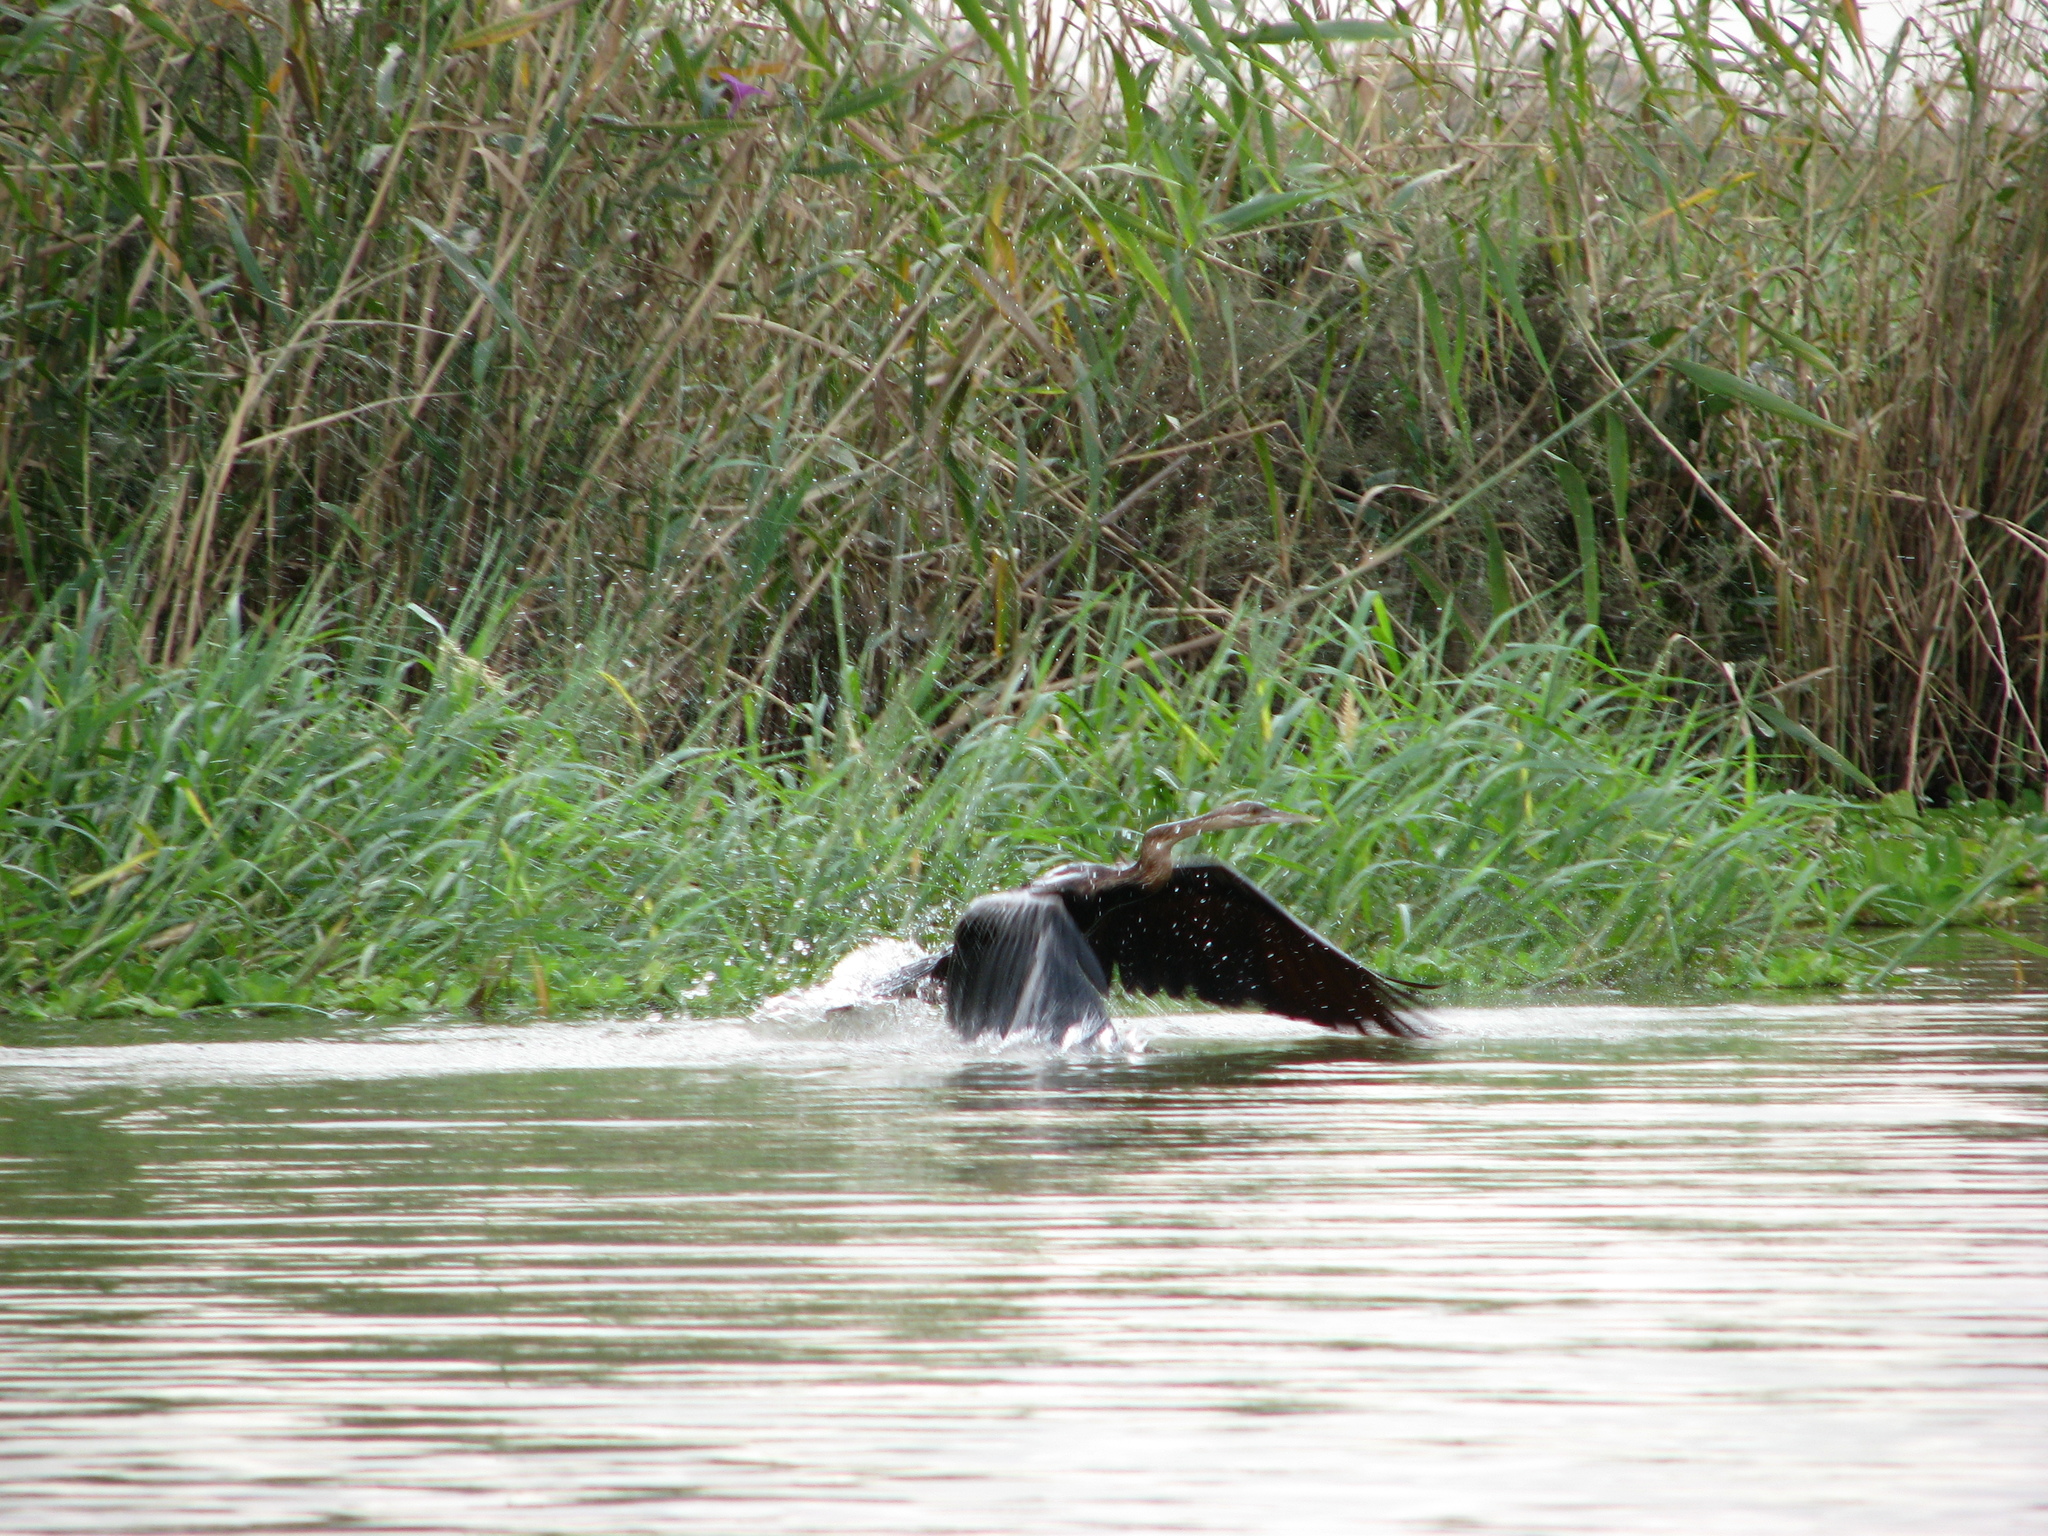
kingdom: Animalia
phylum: Chordata
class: Aves
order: Suliformes
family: Anhingidae
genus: Anhinga
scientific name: Anhinga rufa
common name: African darter
